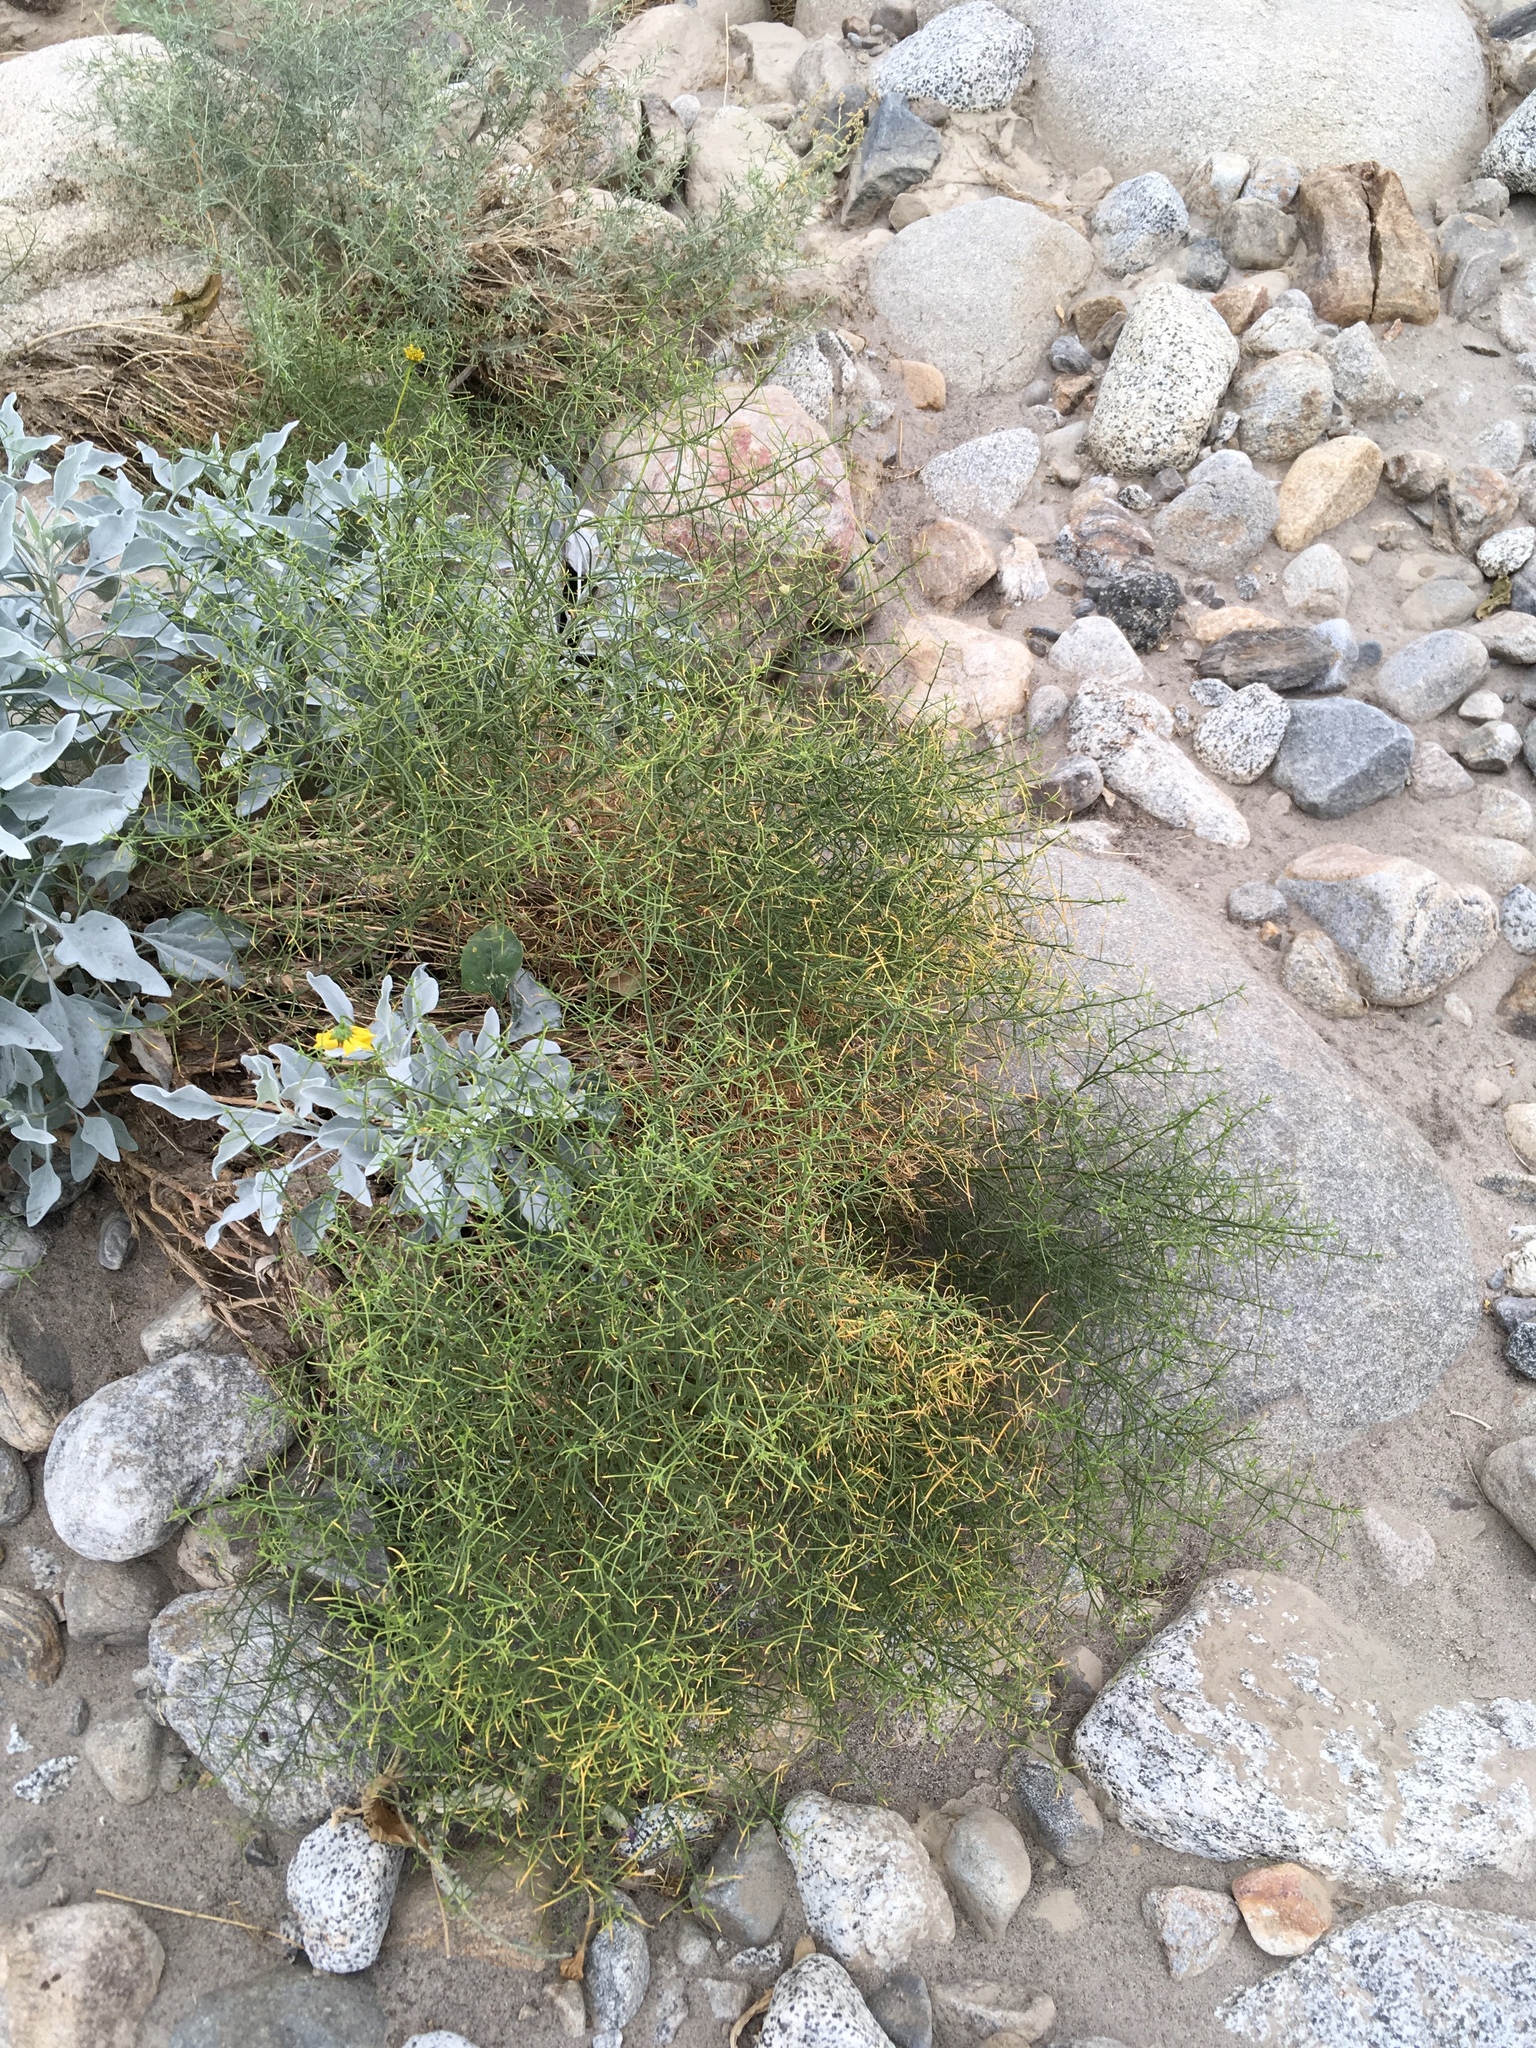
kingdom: Plantae
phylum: Tracheophyta
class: Magnoliopsida
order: Asterales
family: Asteraceae
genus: Ambrosia
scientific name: Ambrosia salsola
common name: Burrobrush
